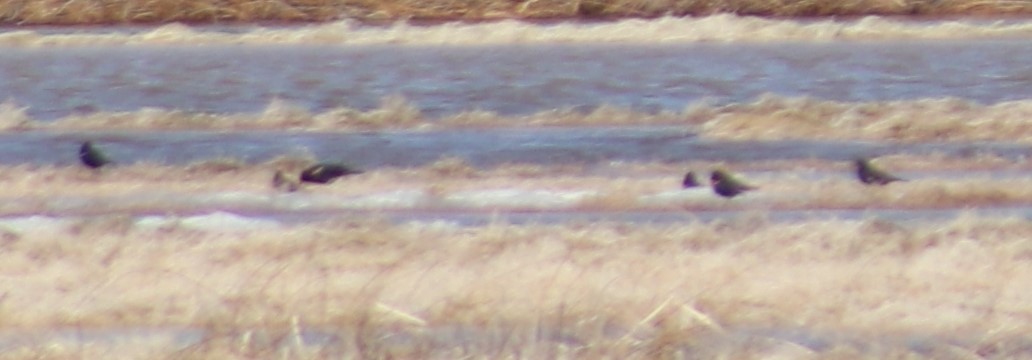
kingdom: Animalia
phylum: Chordata
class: Aves
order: Passeriformes
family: Icteridae
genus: Agelaius
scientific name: Agelaius phoeniceus
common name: Red-winged blackbird
